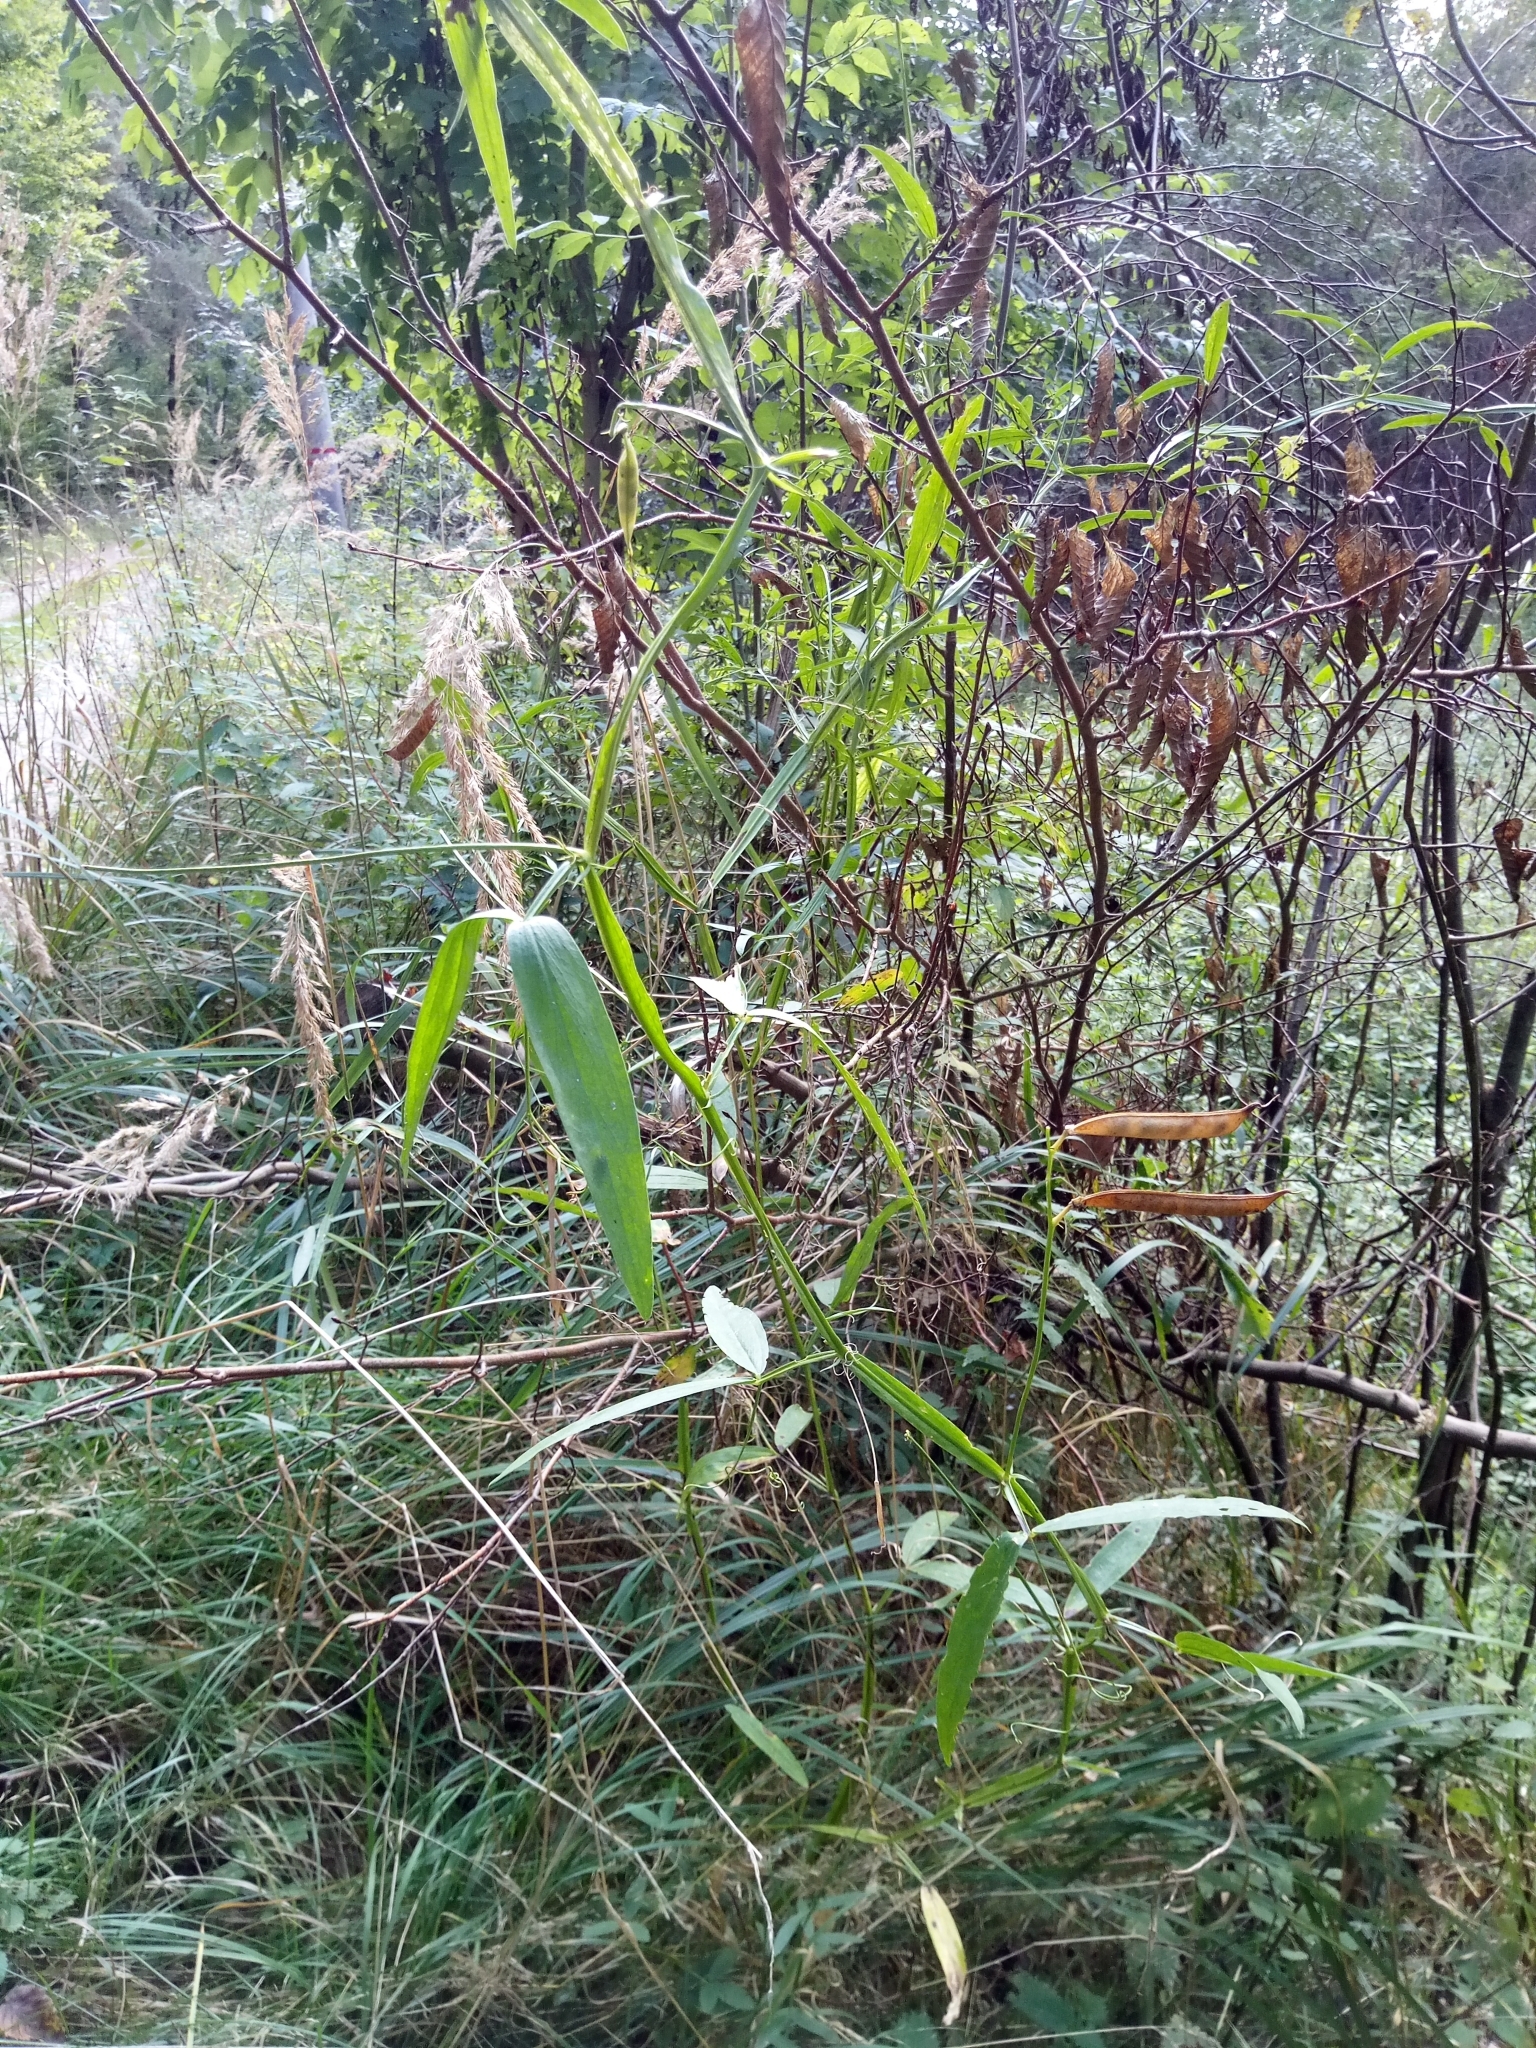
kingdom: Plantae
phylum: Tracheophyta
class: Magnoliopsida
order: Fabales
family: Fabaceae
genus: Lathyrus
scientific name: Lathyrus sylvestris
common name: Flat pea
